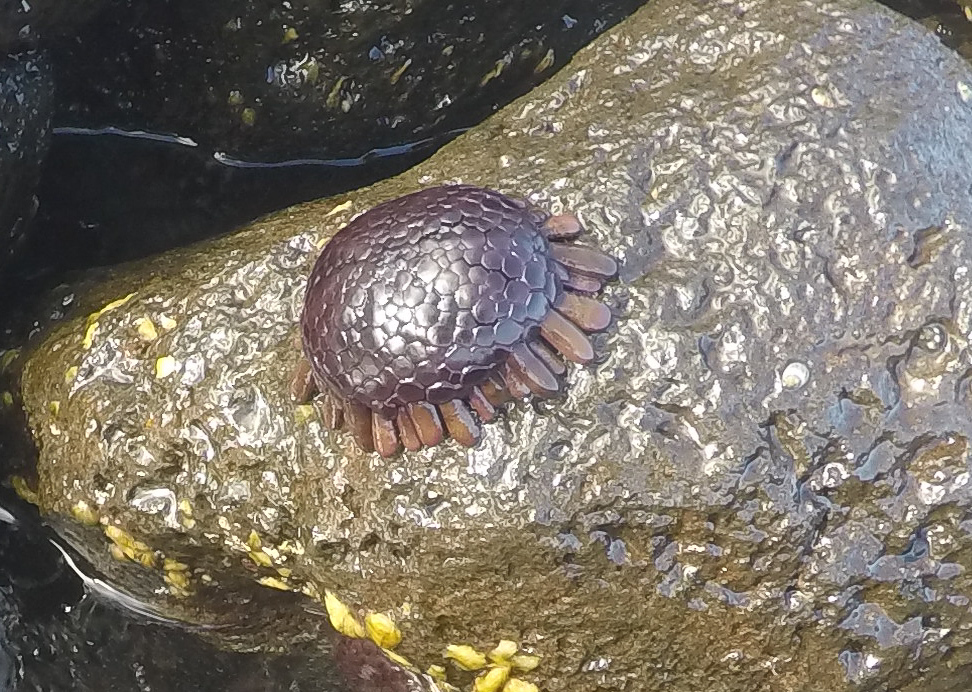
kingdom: Animalia
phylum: Echinodermata
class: Echinoidea
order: Camarodonta
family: Echinometridae
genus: Colobocentrotus
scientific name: Colobocentrotus atratus
